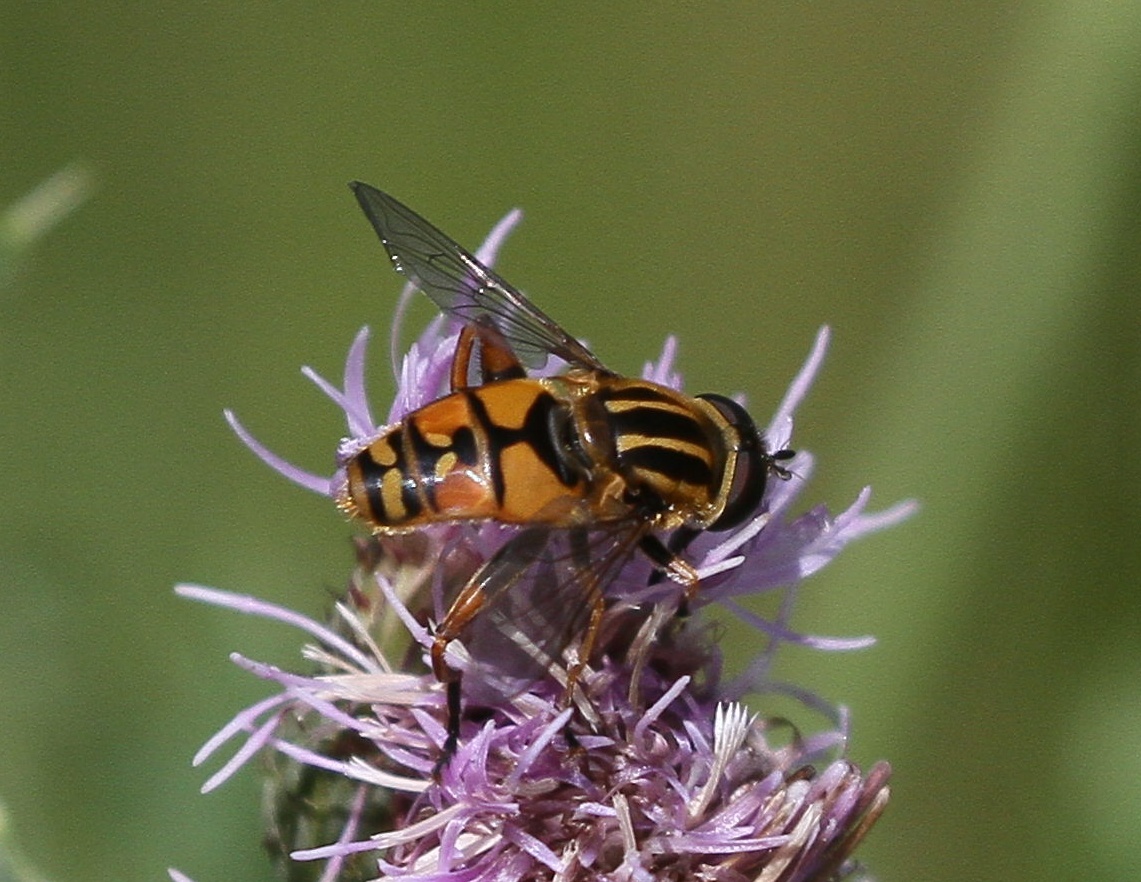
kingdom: Animalia
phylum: Arthropoda
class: Insecta
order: Diptera
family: Syrphidae
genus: Helophilus
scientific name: Helophilus pendulus
